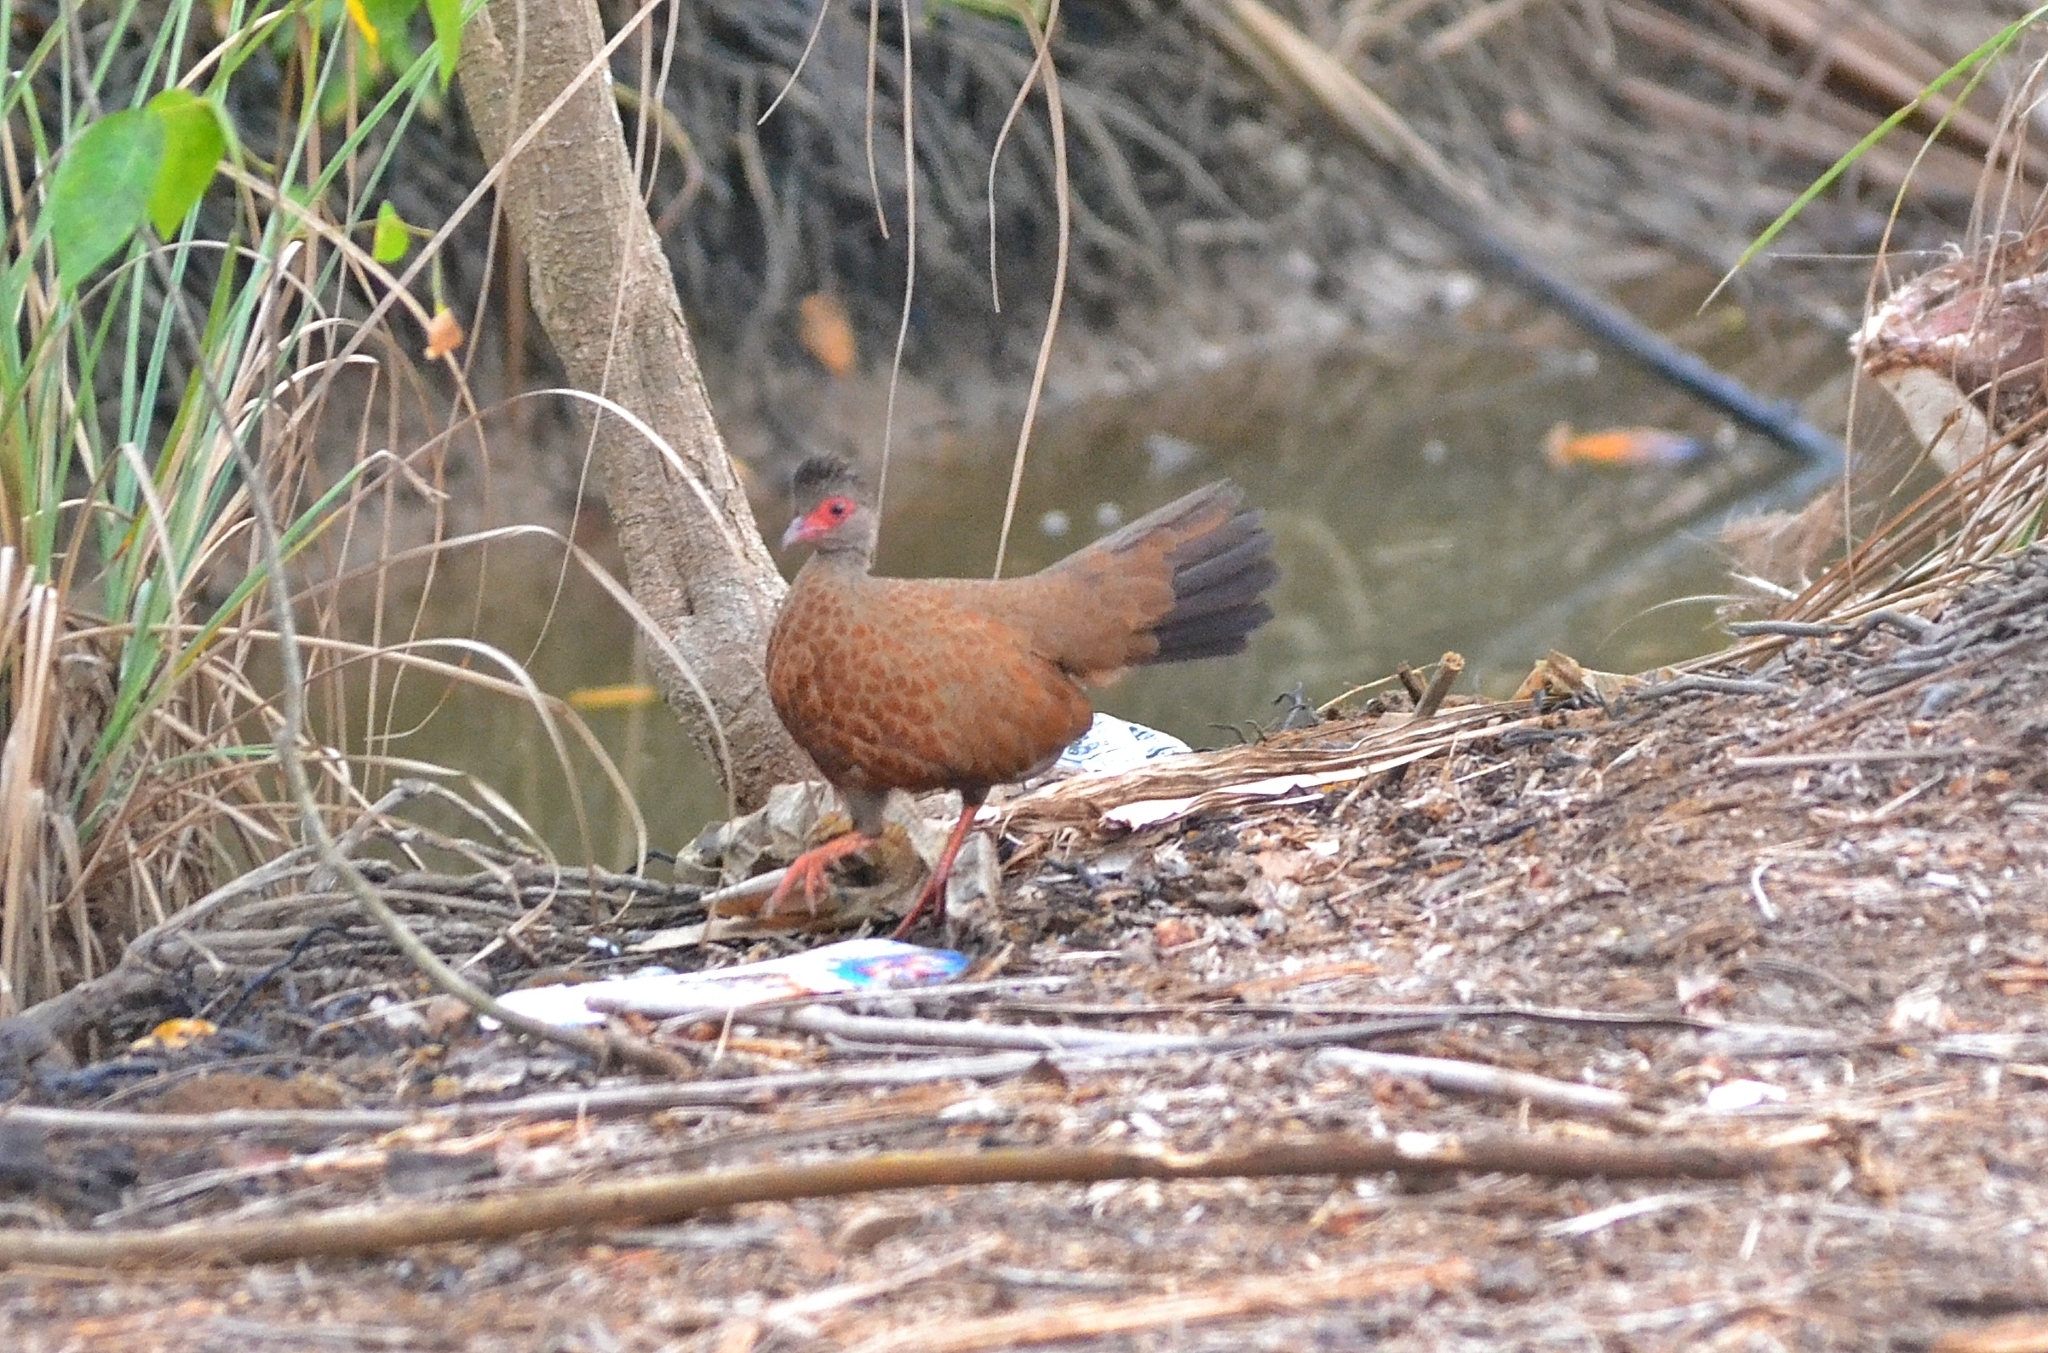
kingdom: Animalia
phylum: Chordata
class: Aves
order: Galliformes
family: Phasianidae
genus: Galloperdix
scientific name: Galloperdix spadicea
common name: Red spurfowl
